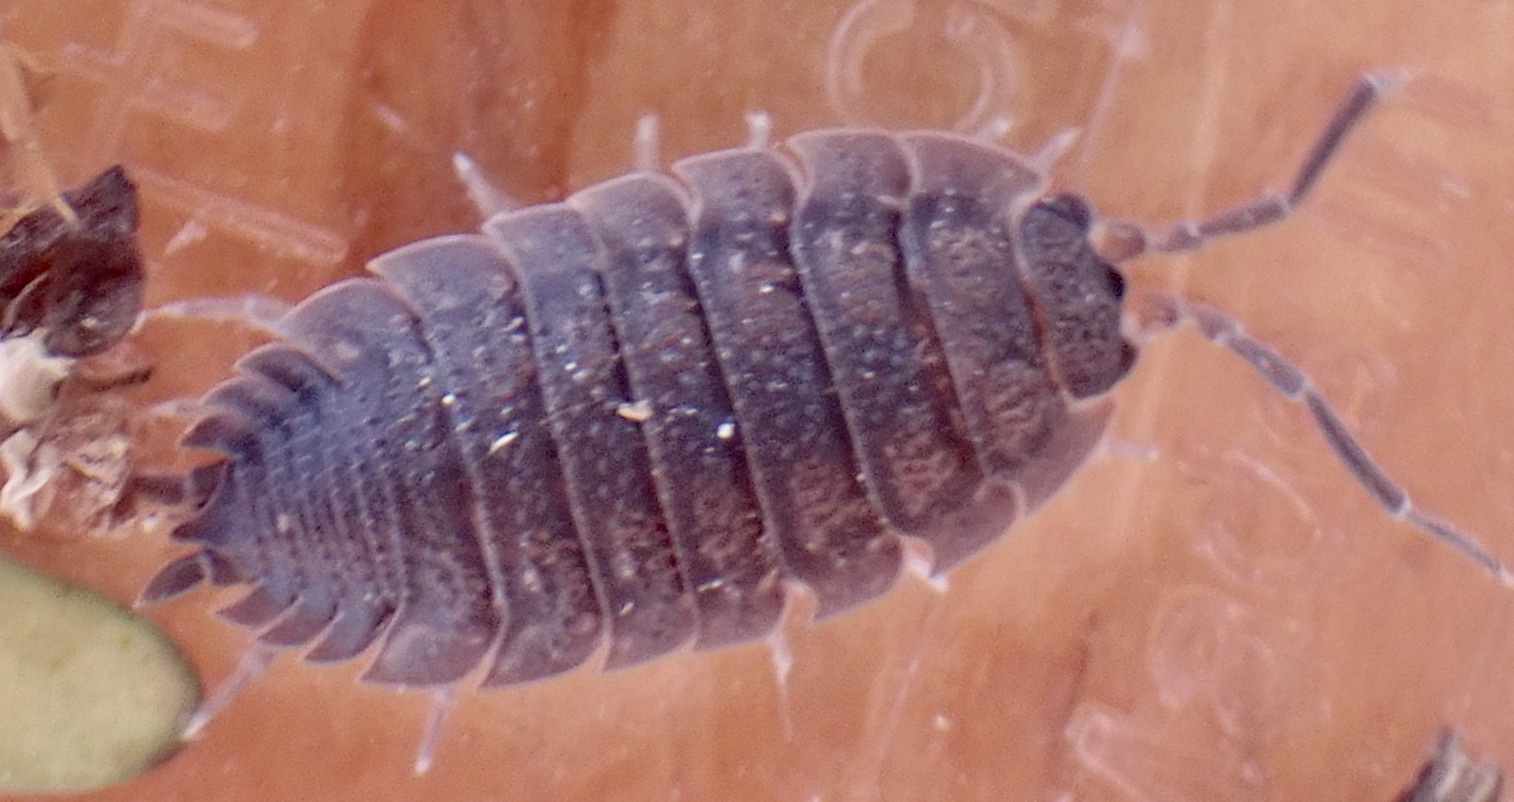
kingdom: Animalia
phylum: Arthropoda
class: Malacostraca
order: Isopoda
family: Porcellionidae
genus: Porcellio
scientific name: Porcellio scaber
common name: Common rough woodlouse
